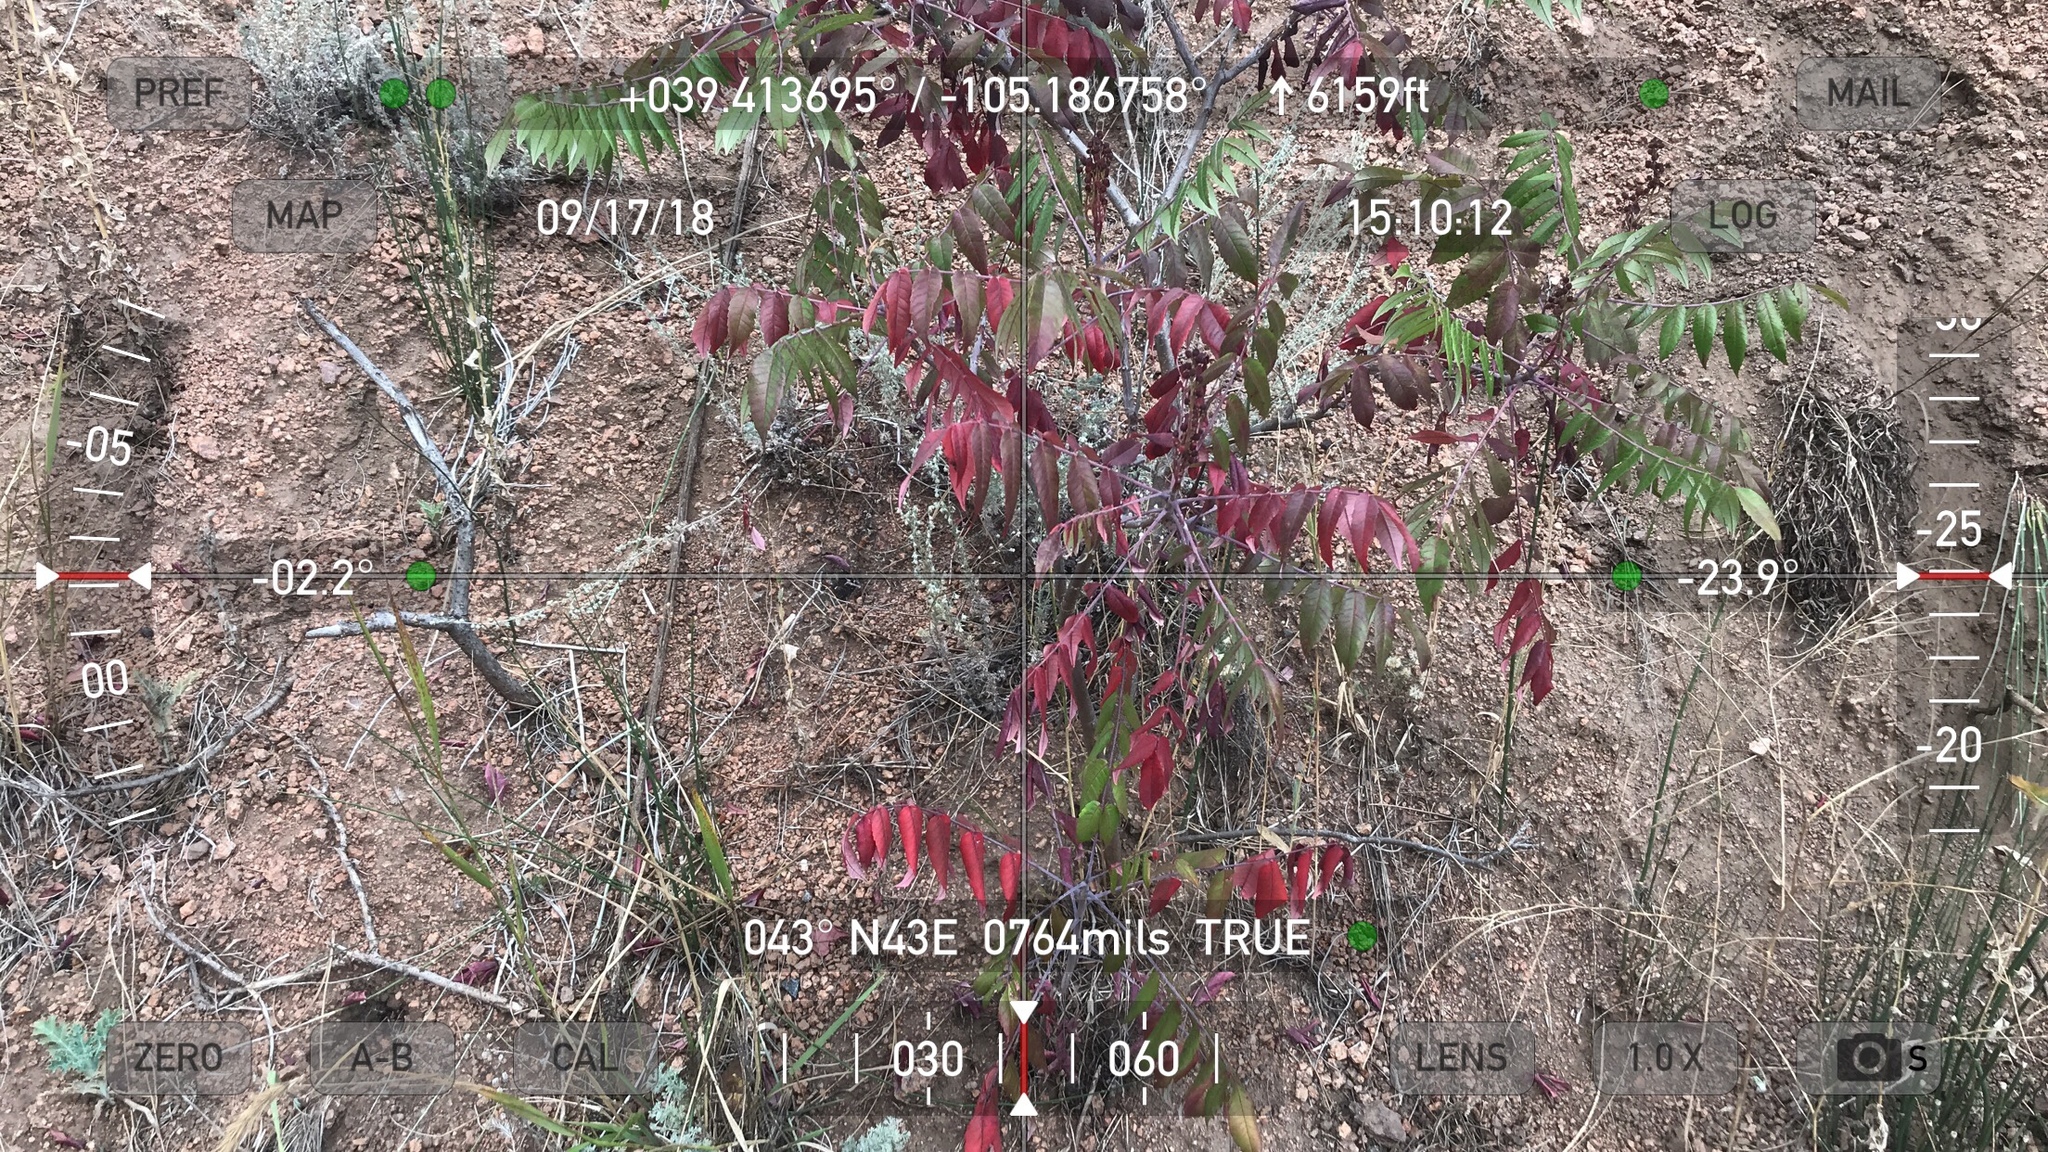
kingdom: Plantae
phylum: Tracheophyta
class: Magnoliopsida
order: Sapindales
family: Anacardiaceae
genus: Rhus
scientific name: Rhus glabra
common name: Scarlet sumac
